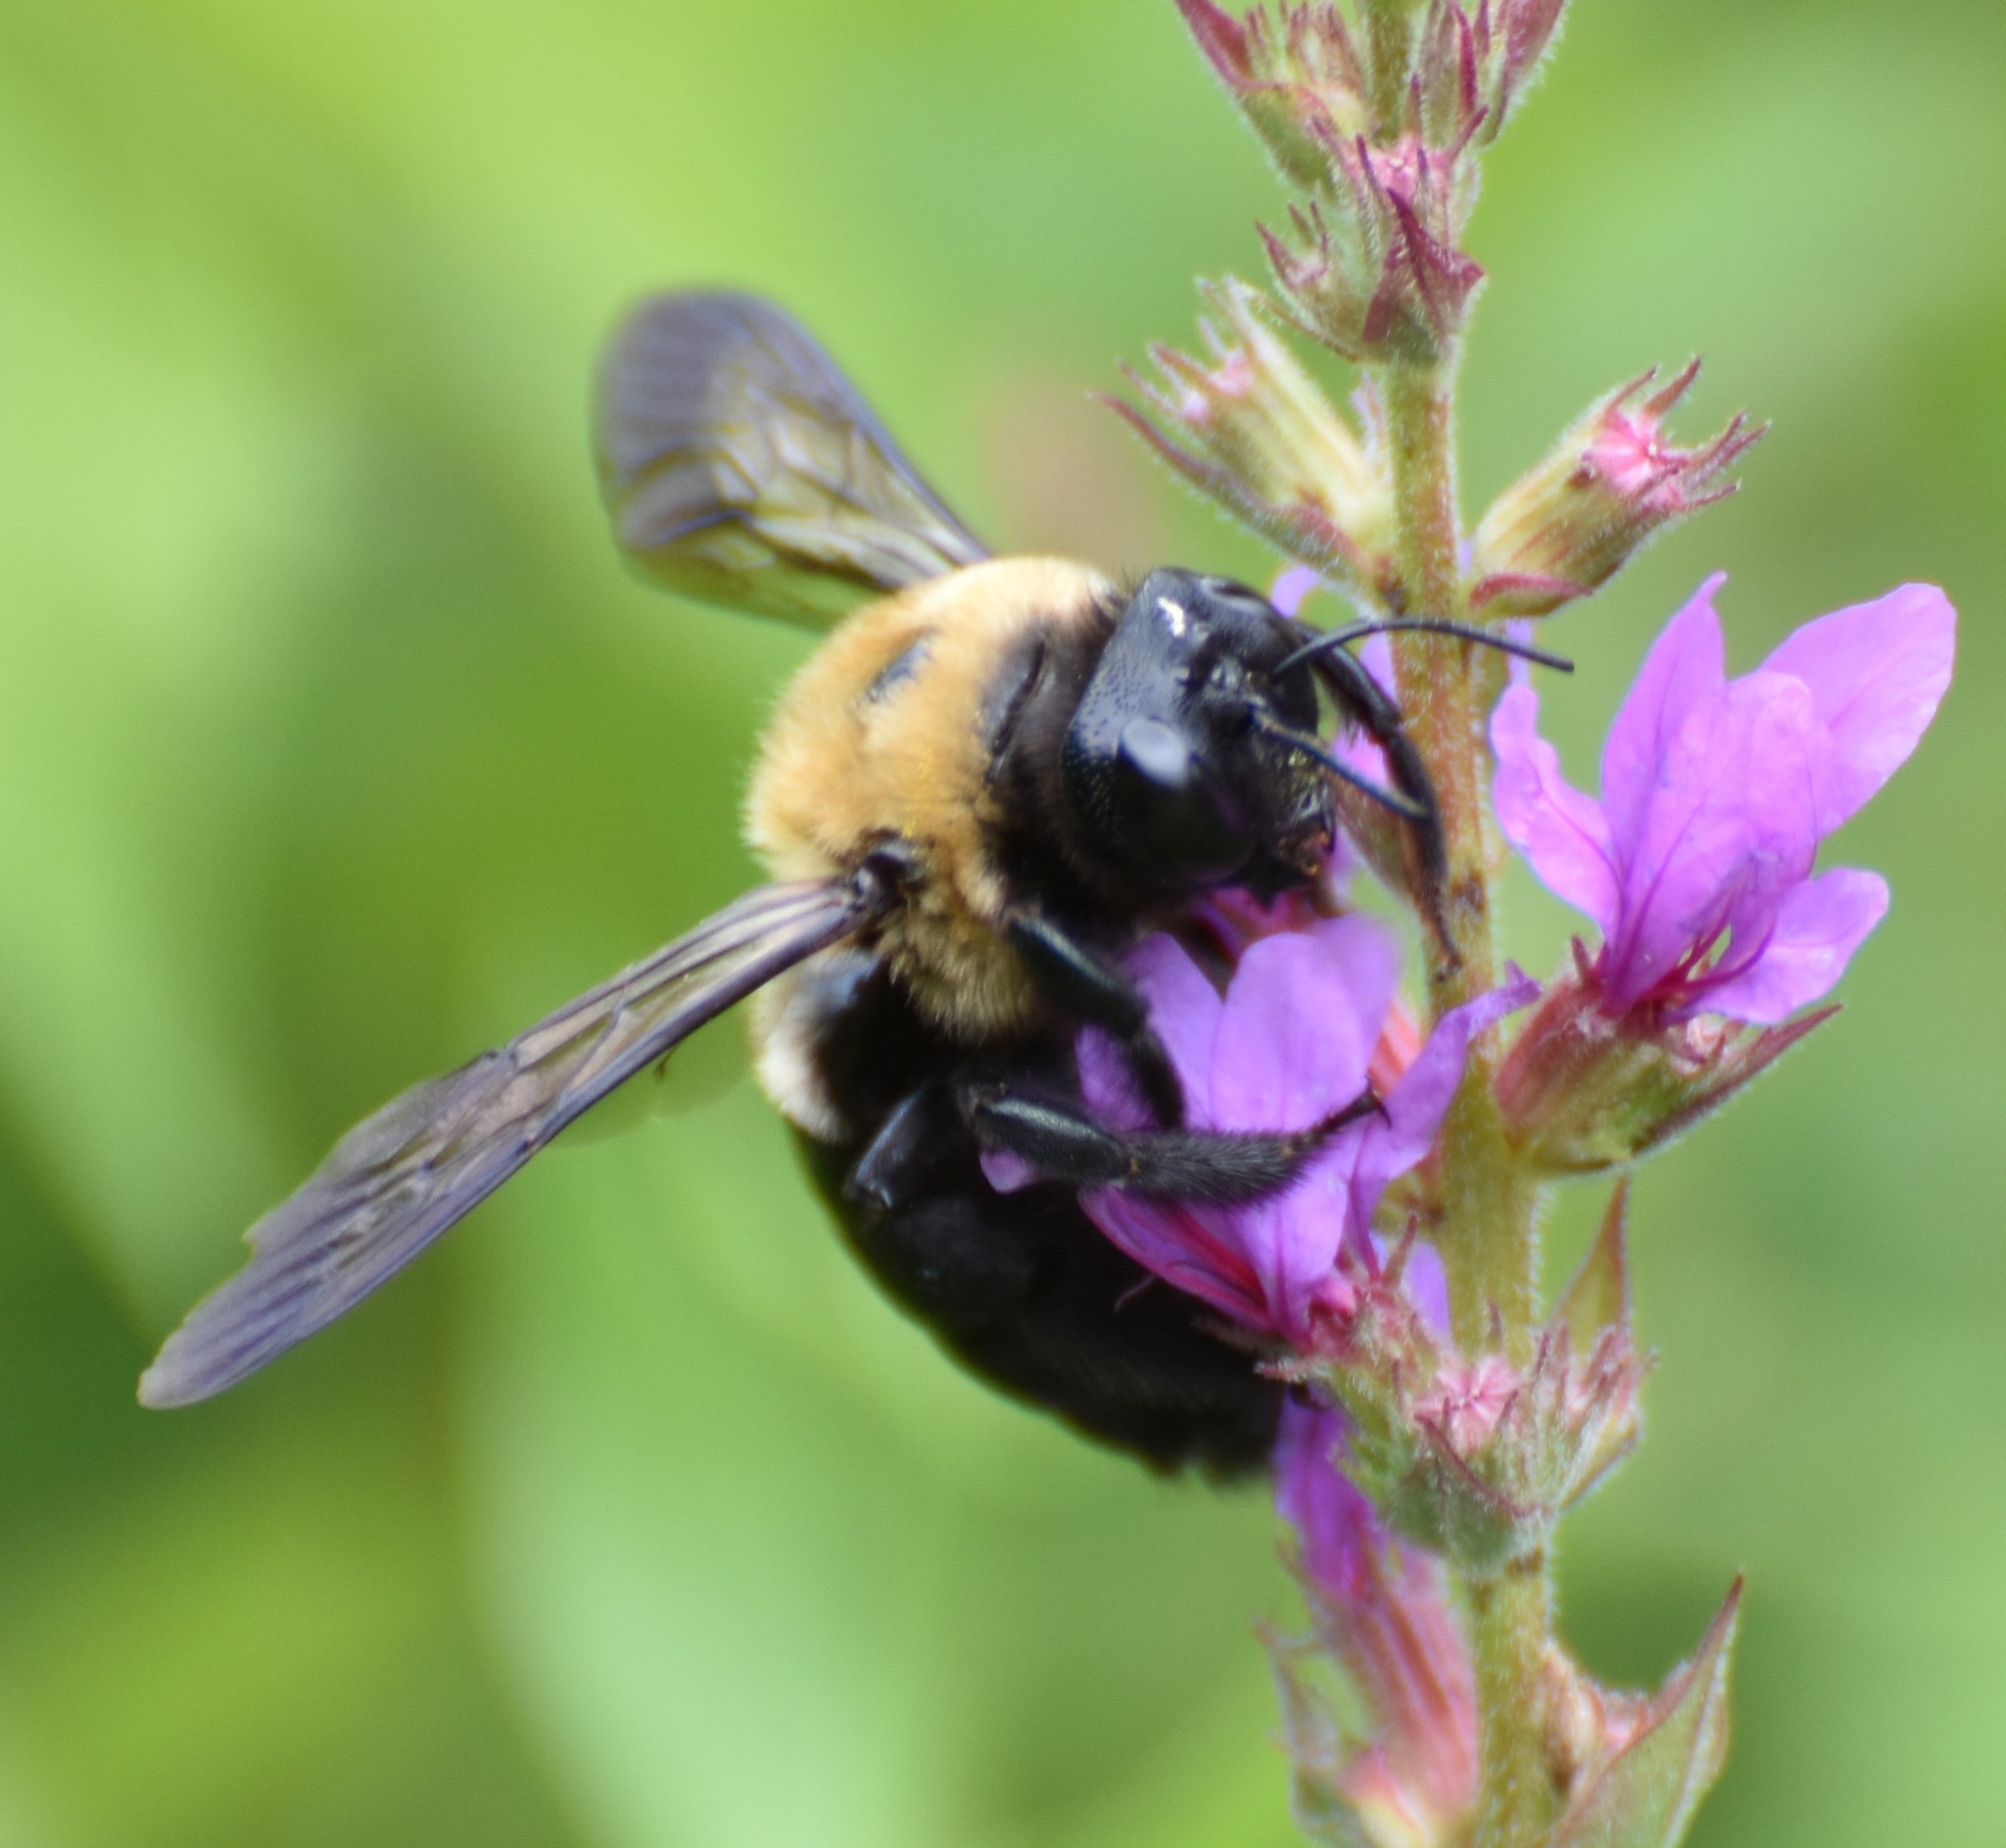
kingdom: Animalia
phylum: Arthropoda
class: Insecta
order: Hymenoptera
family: Apidae
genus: Xylocopa
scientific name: Xylocopa virginica
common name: Carpenter bee
